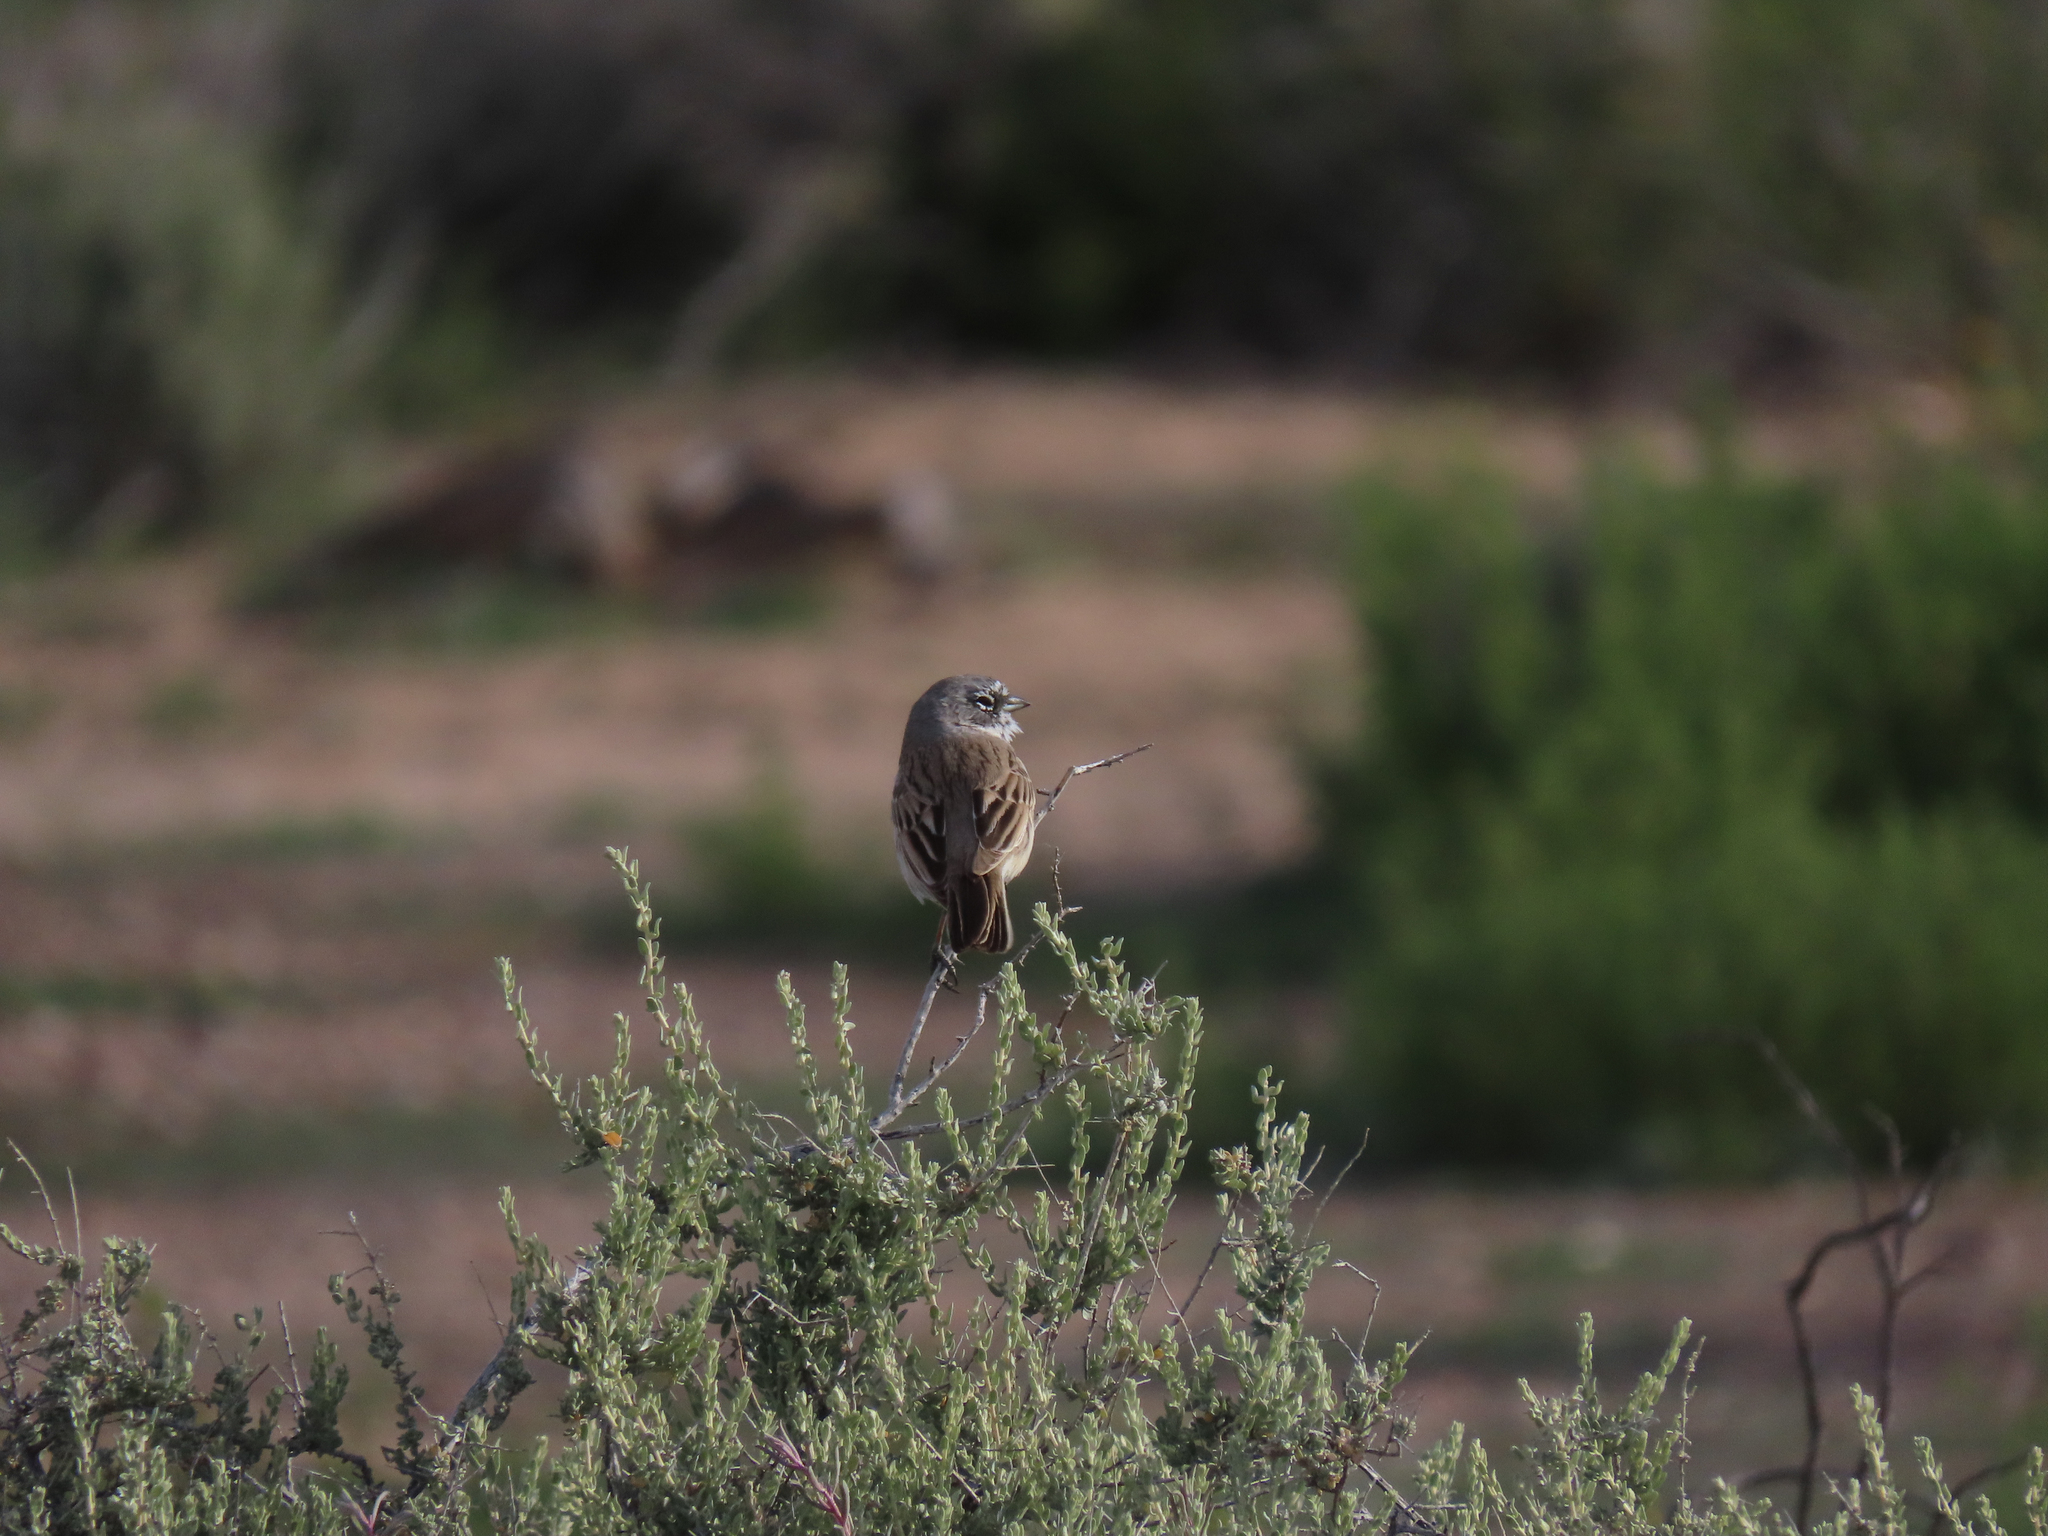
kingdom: Animalia
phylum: Chordata
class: Aves
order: Passeriformes
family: Passerellidae
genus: Artemisiospiza
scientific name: Artemisiospiza nevadensis
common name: Sagebrush sparrow
